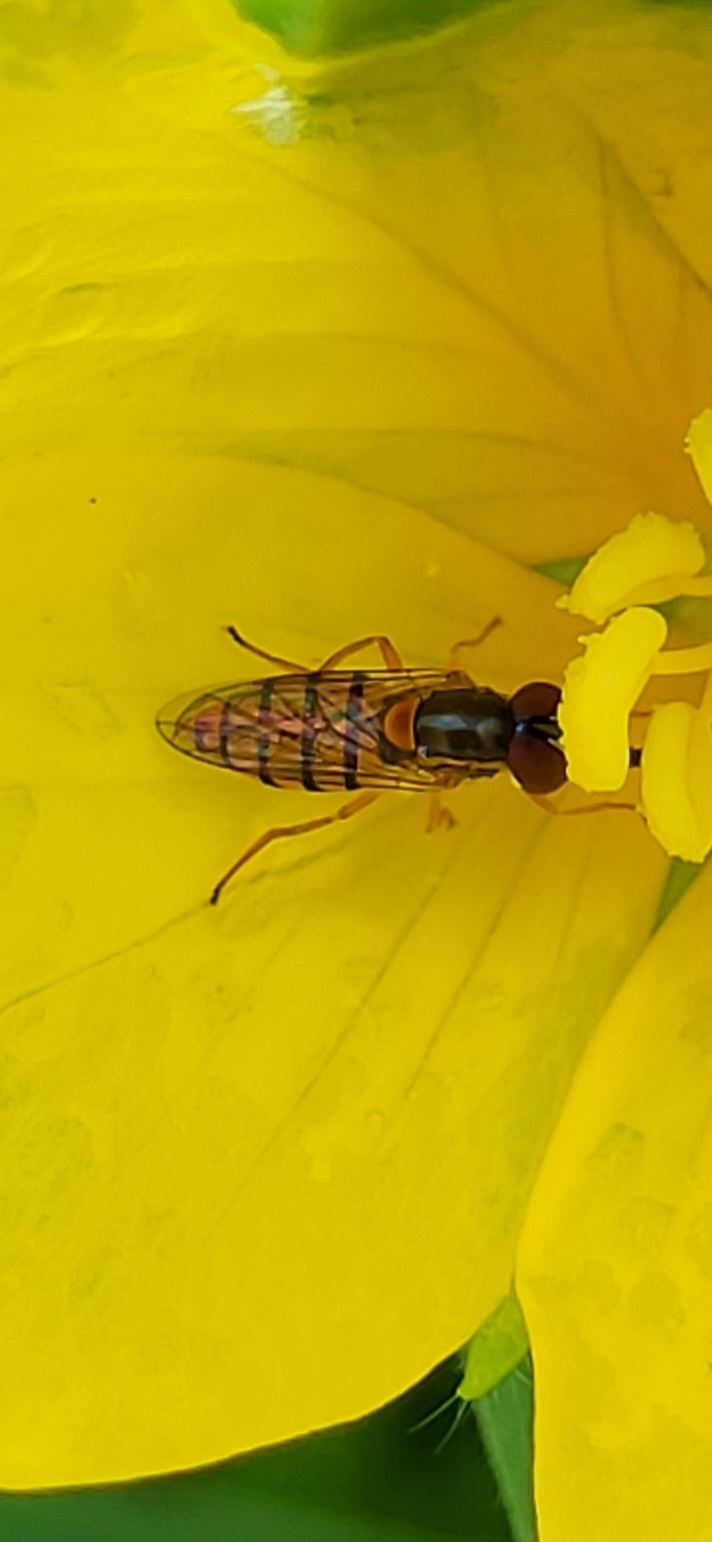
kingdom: Animalia
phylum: Arthropoda
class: Insecta
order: Diptera
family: Syrphidae
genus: Toxomerus
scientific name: Toxomerus jussiaeae
